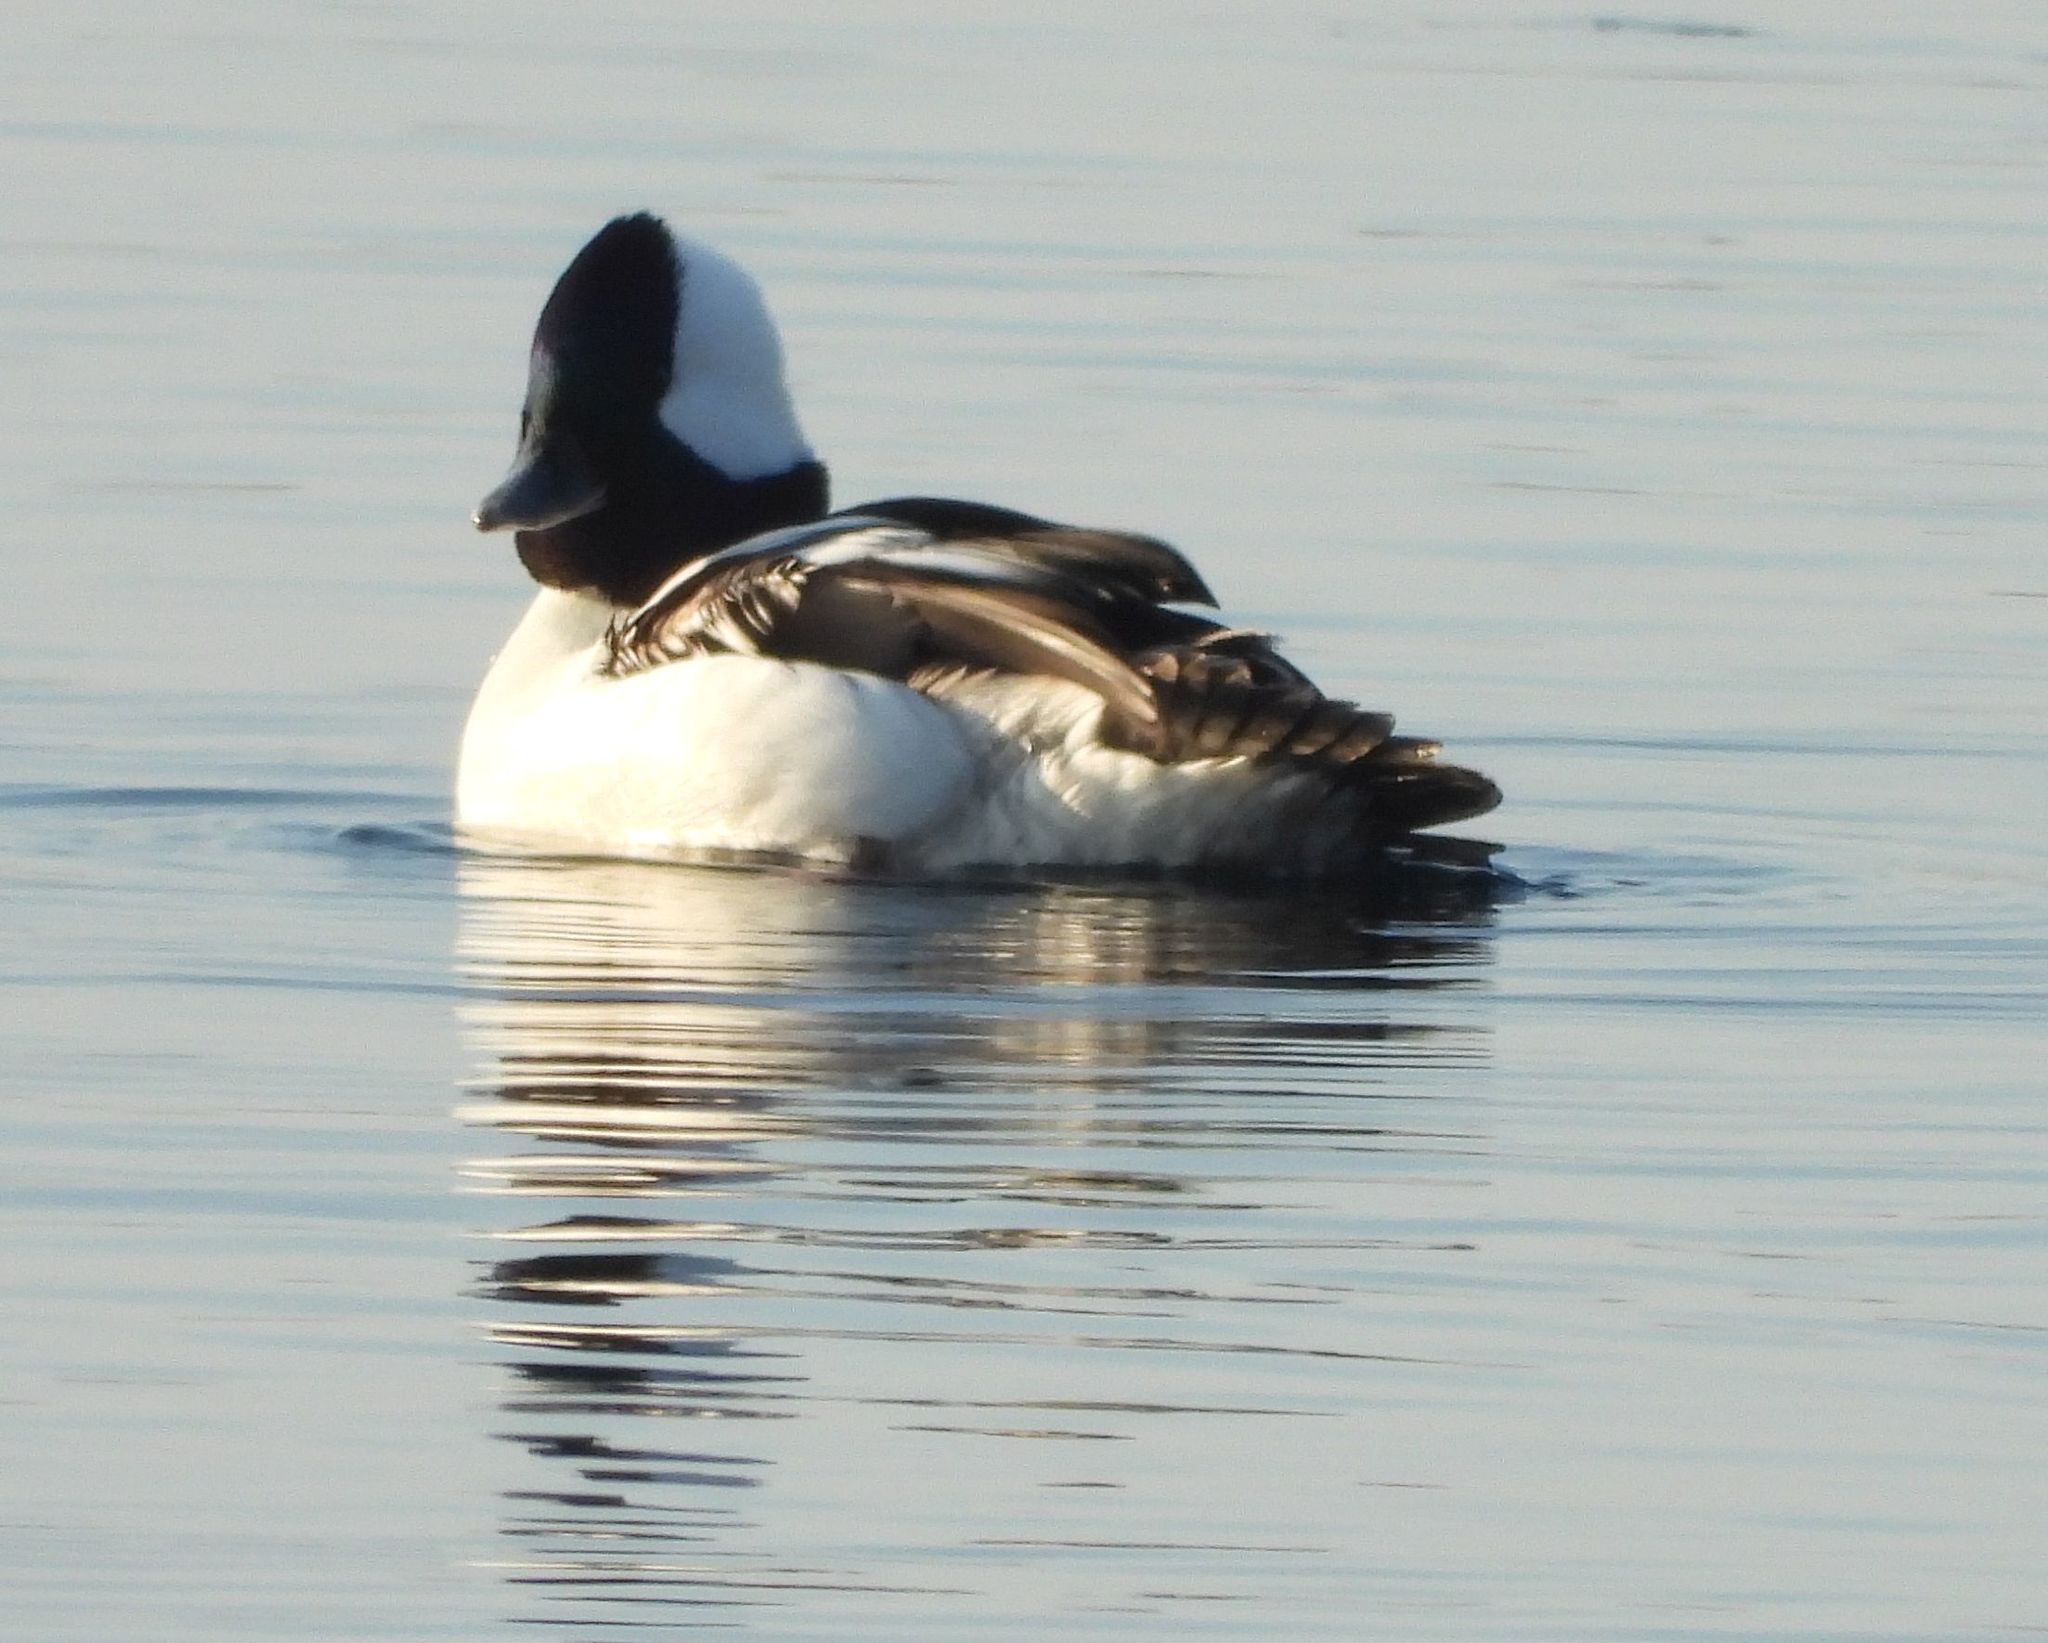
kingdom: Animalia
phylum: Chordata
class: Aves
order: Anseriformes
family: Anatidae
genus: Bucephala
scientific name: Bucephala albeola
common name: Bufflehead
